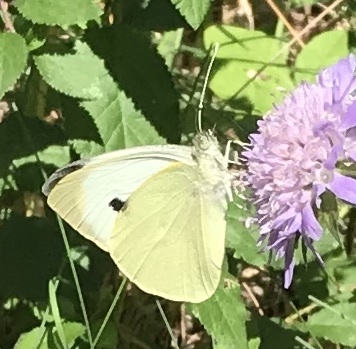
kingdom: Animalia
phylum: Arthropoda
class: Insecta
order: Lepidoptera
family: Pieridae
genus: Pieris
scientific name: Pieris brassicae
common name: Large white
